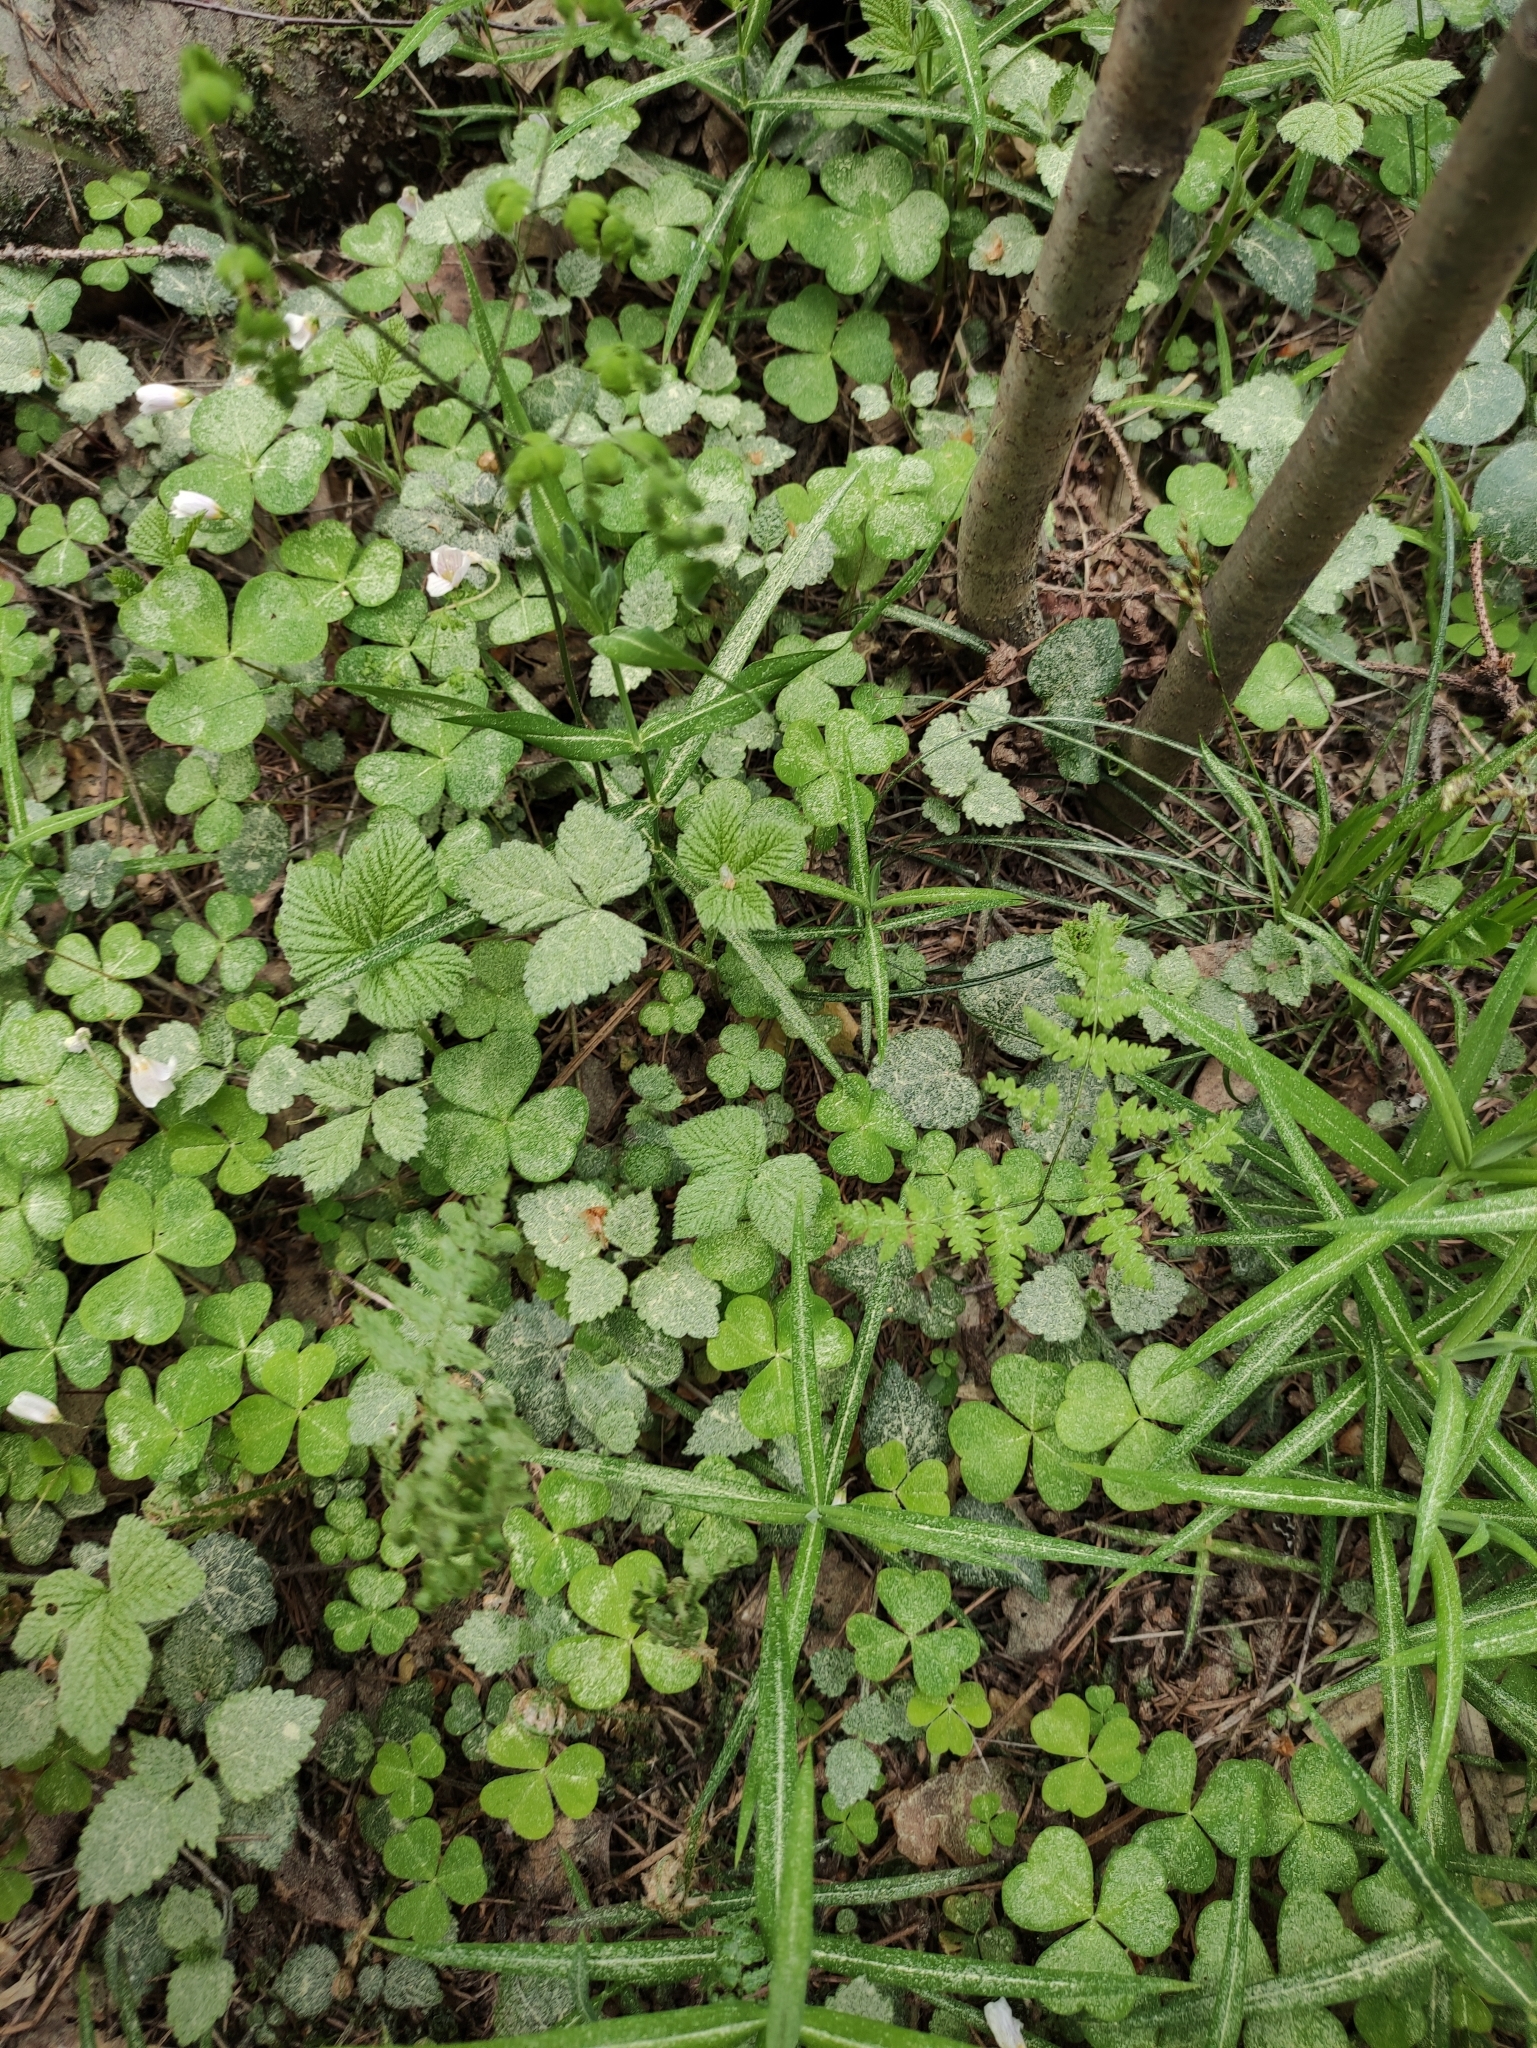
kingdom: Plantae
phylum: Tracheophyta
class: Polypodiopsida
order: Polypodiales
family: Cystopteridaceae
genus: Gymnocarpium
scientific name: Gymnocarpium dryopteris
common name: Oak fern
